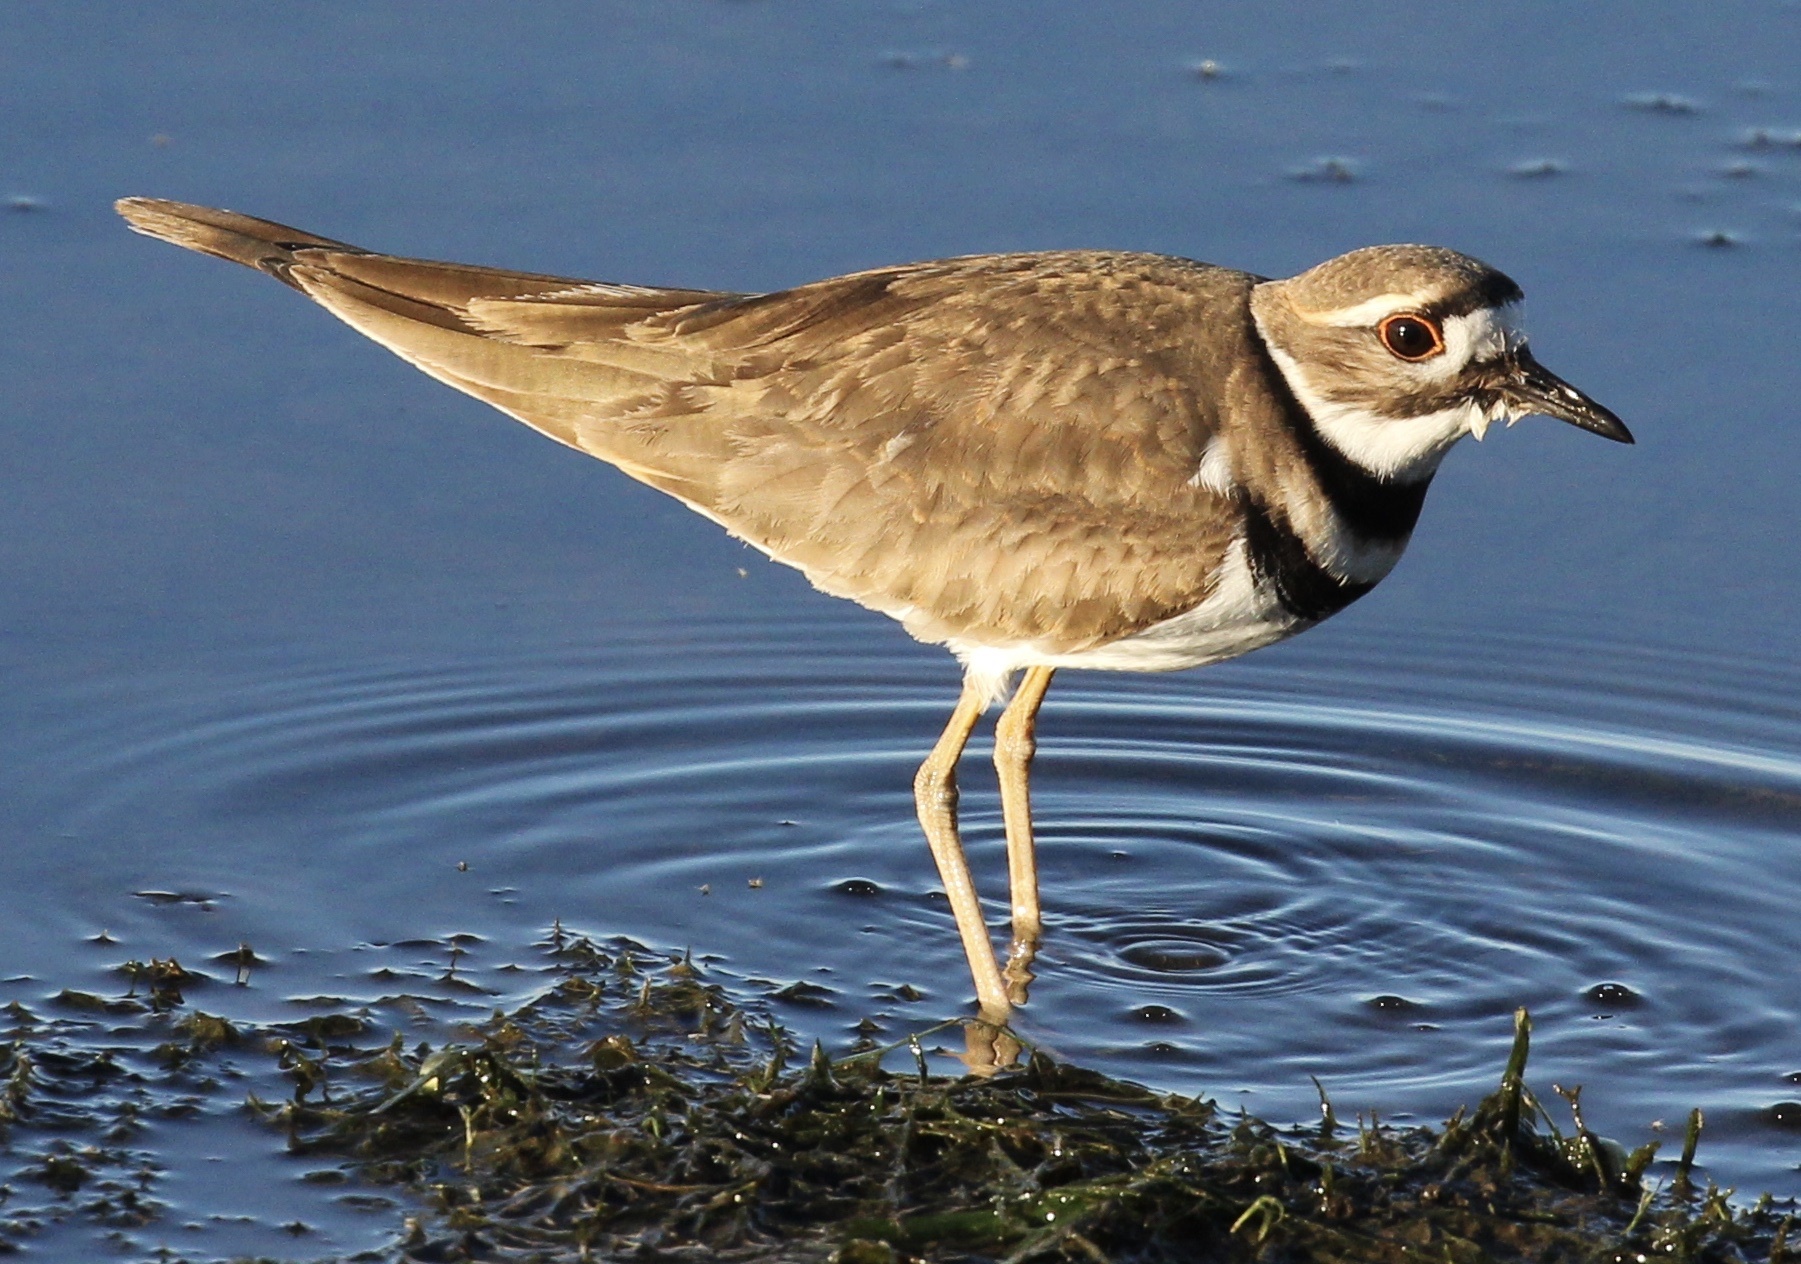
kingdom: Animalia
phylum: Chordata
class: Aves
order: Charadriiformes
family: Charadriidae
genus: Charadrius
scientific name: Charadrius vociferus
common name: Killdeer
